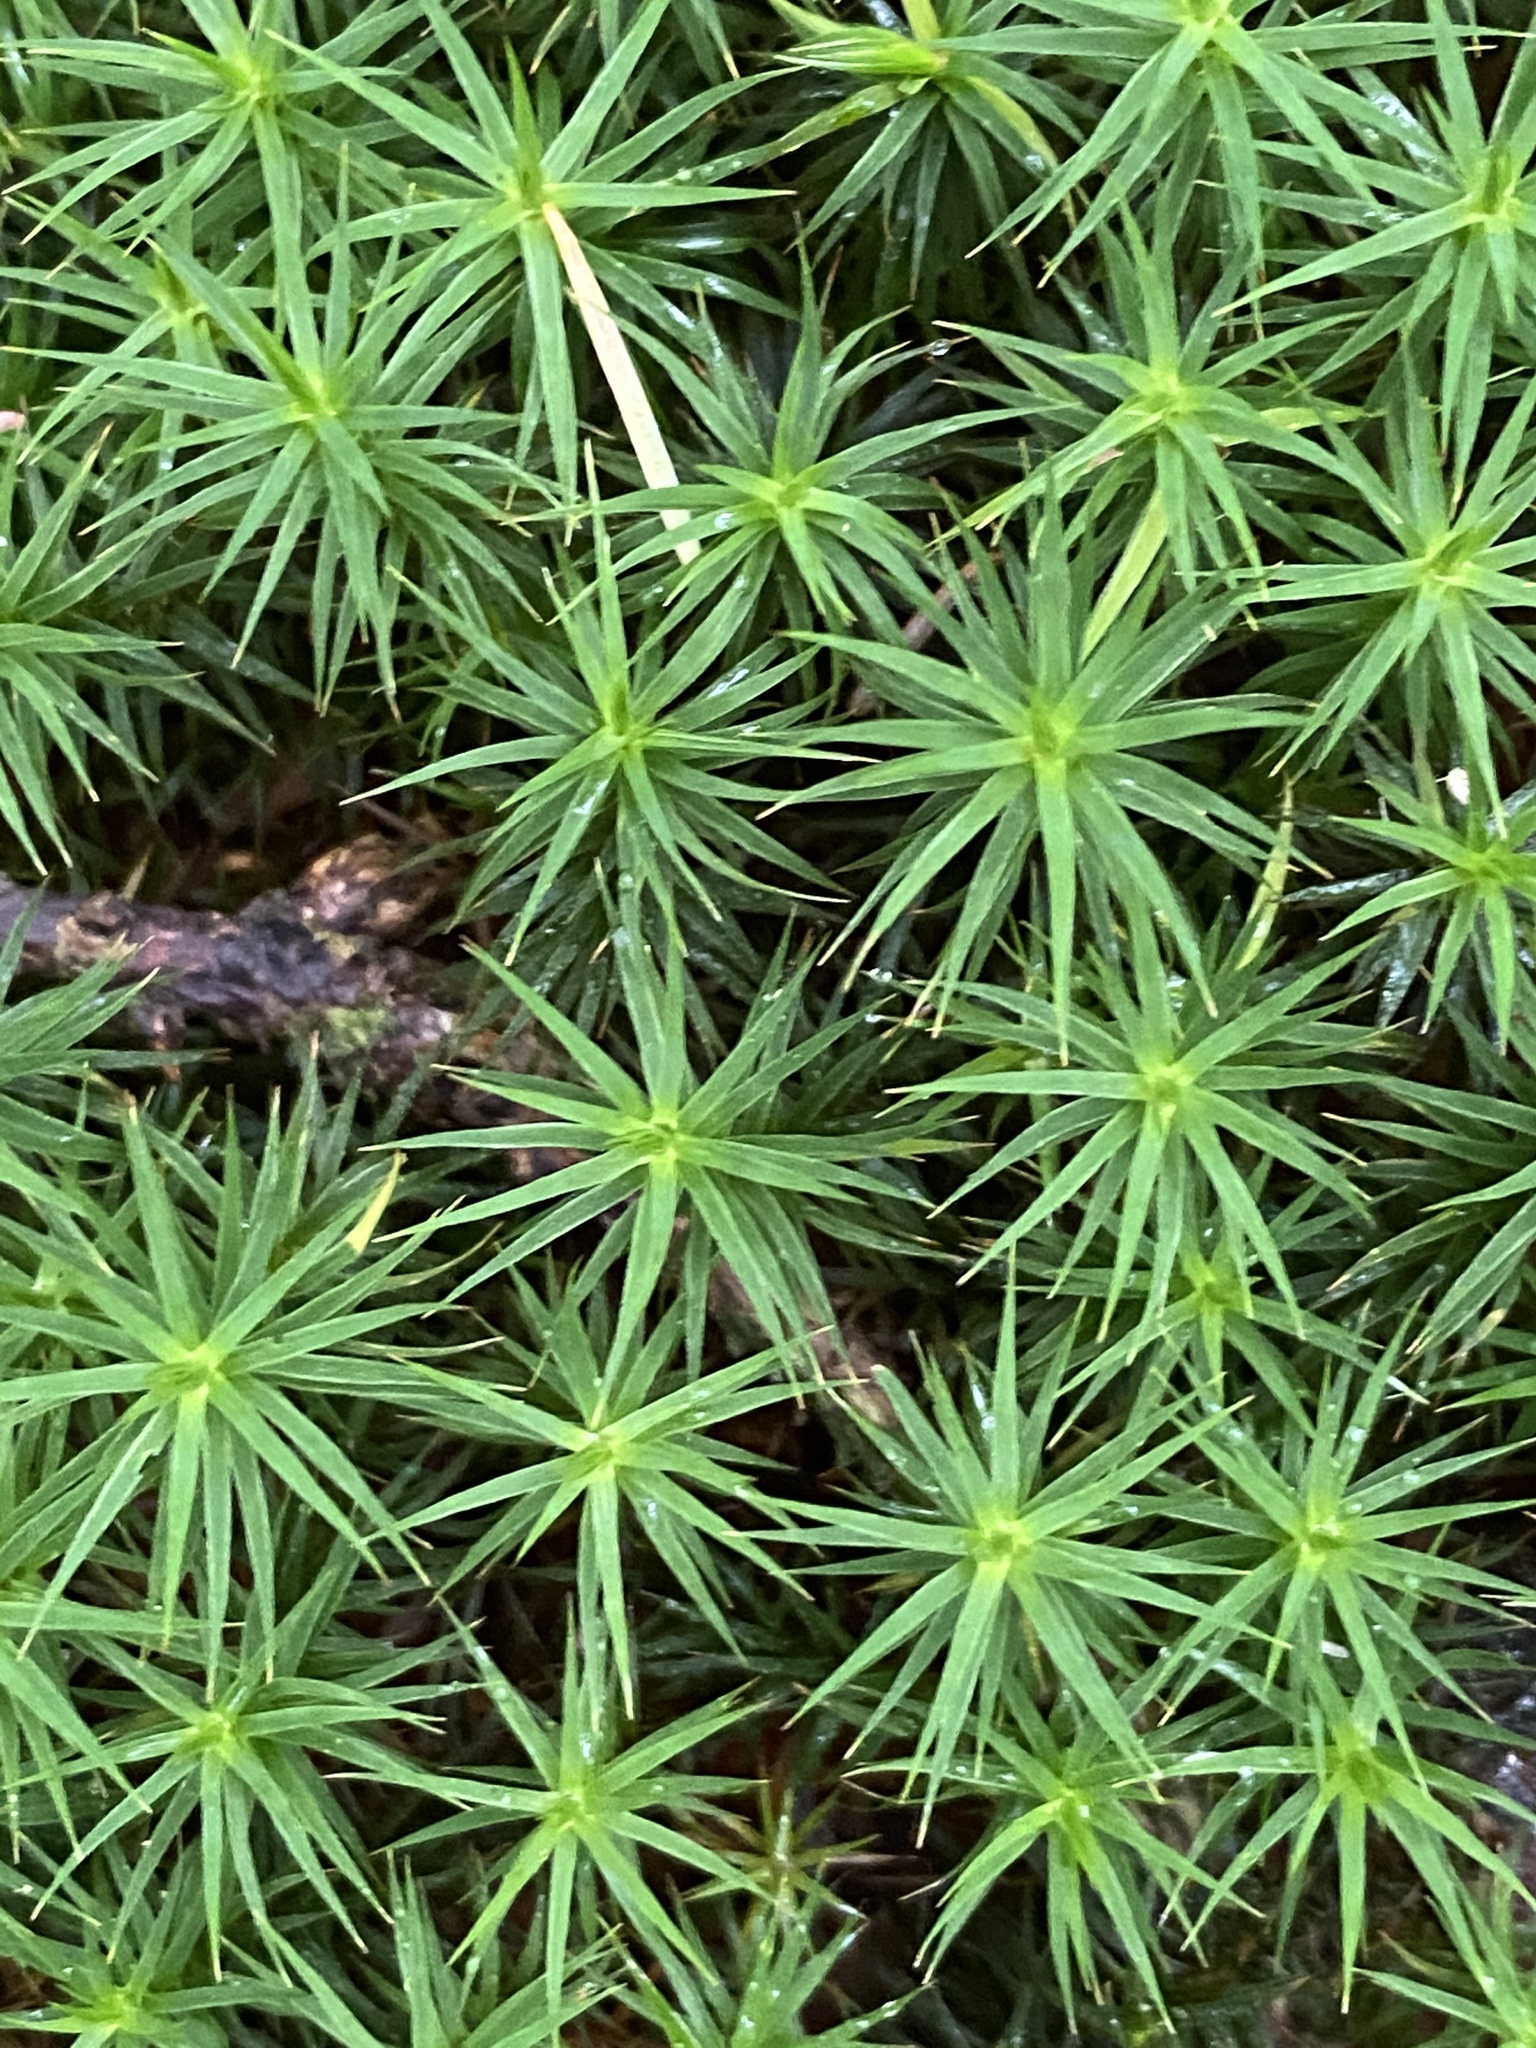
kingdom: Plantae
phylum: Bryophyta
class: Polytrichopsida
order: Polytrichales
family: Polytrichaceae
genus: Polytrichum
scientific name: Polytrichum formosum
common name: Bank haircap moss
